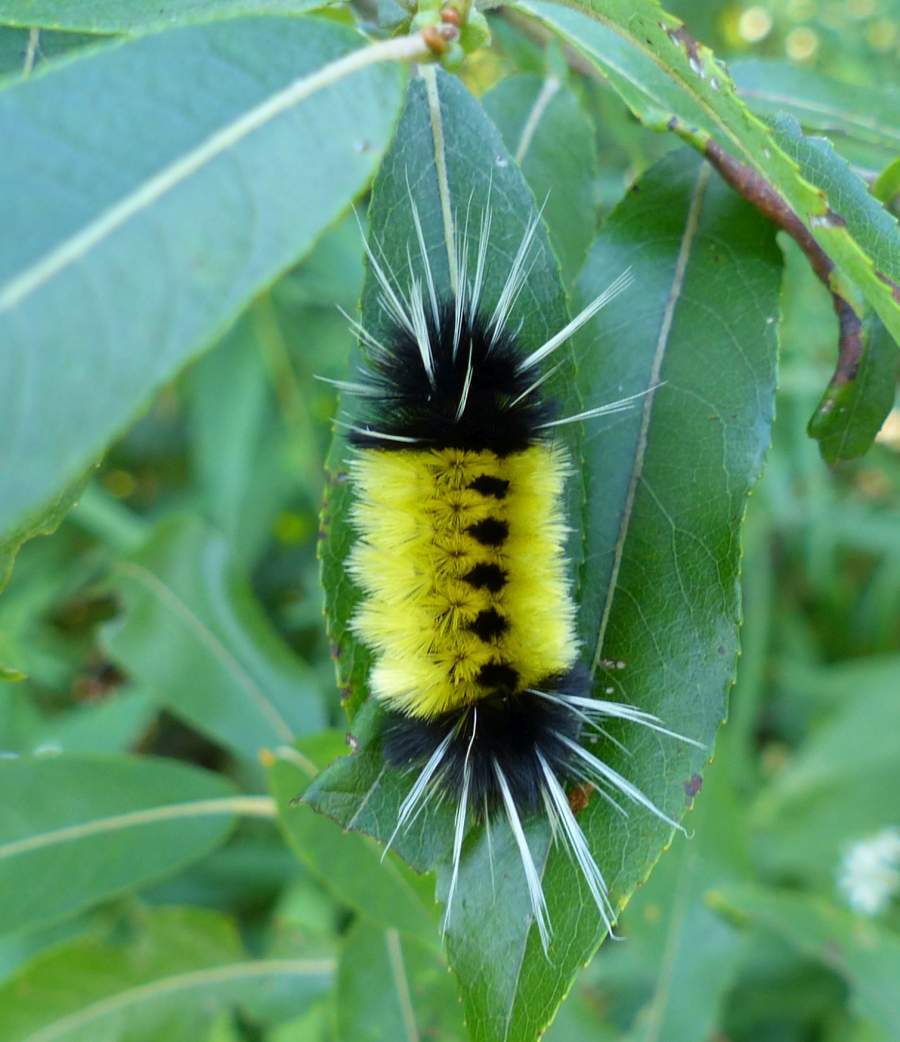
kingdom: Animalia
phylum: Arthropoda
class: Insecta
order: Lepidoptera
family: Erebidae
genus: Lophocampa
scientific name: Lophocampa maculata
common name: Spotted tussock moth
